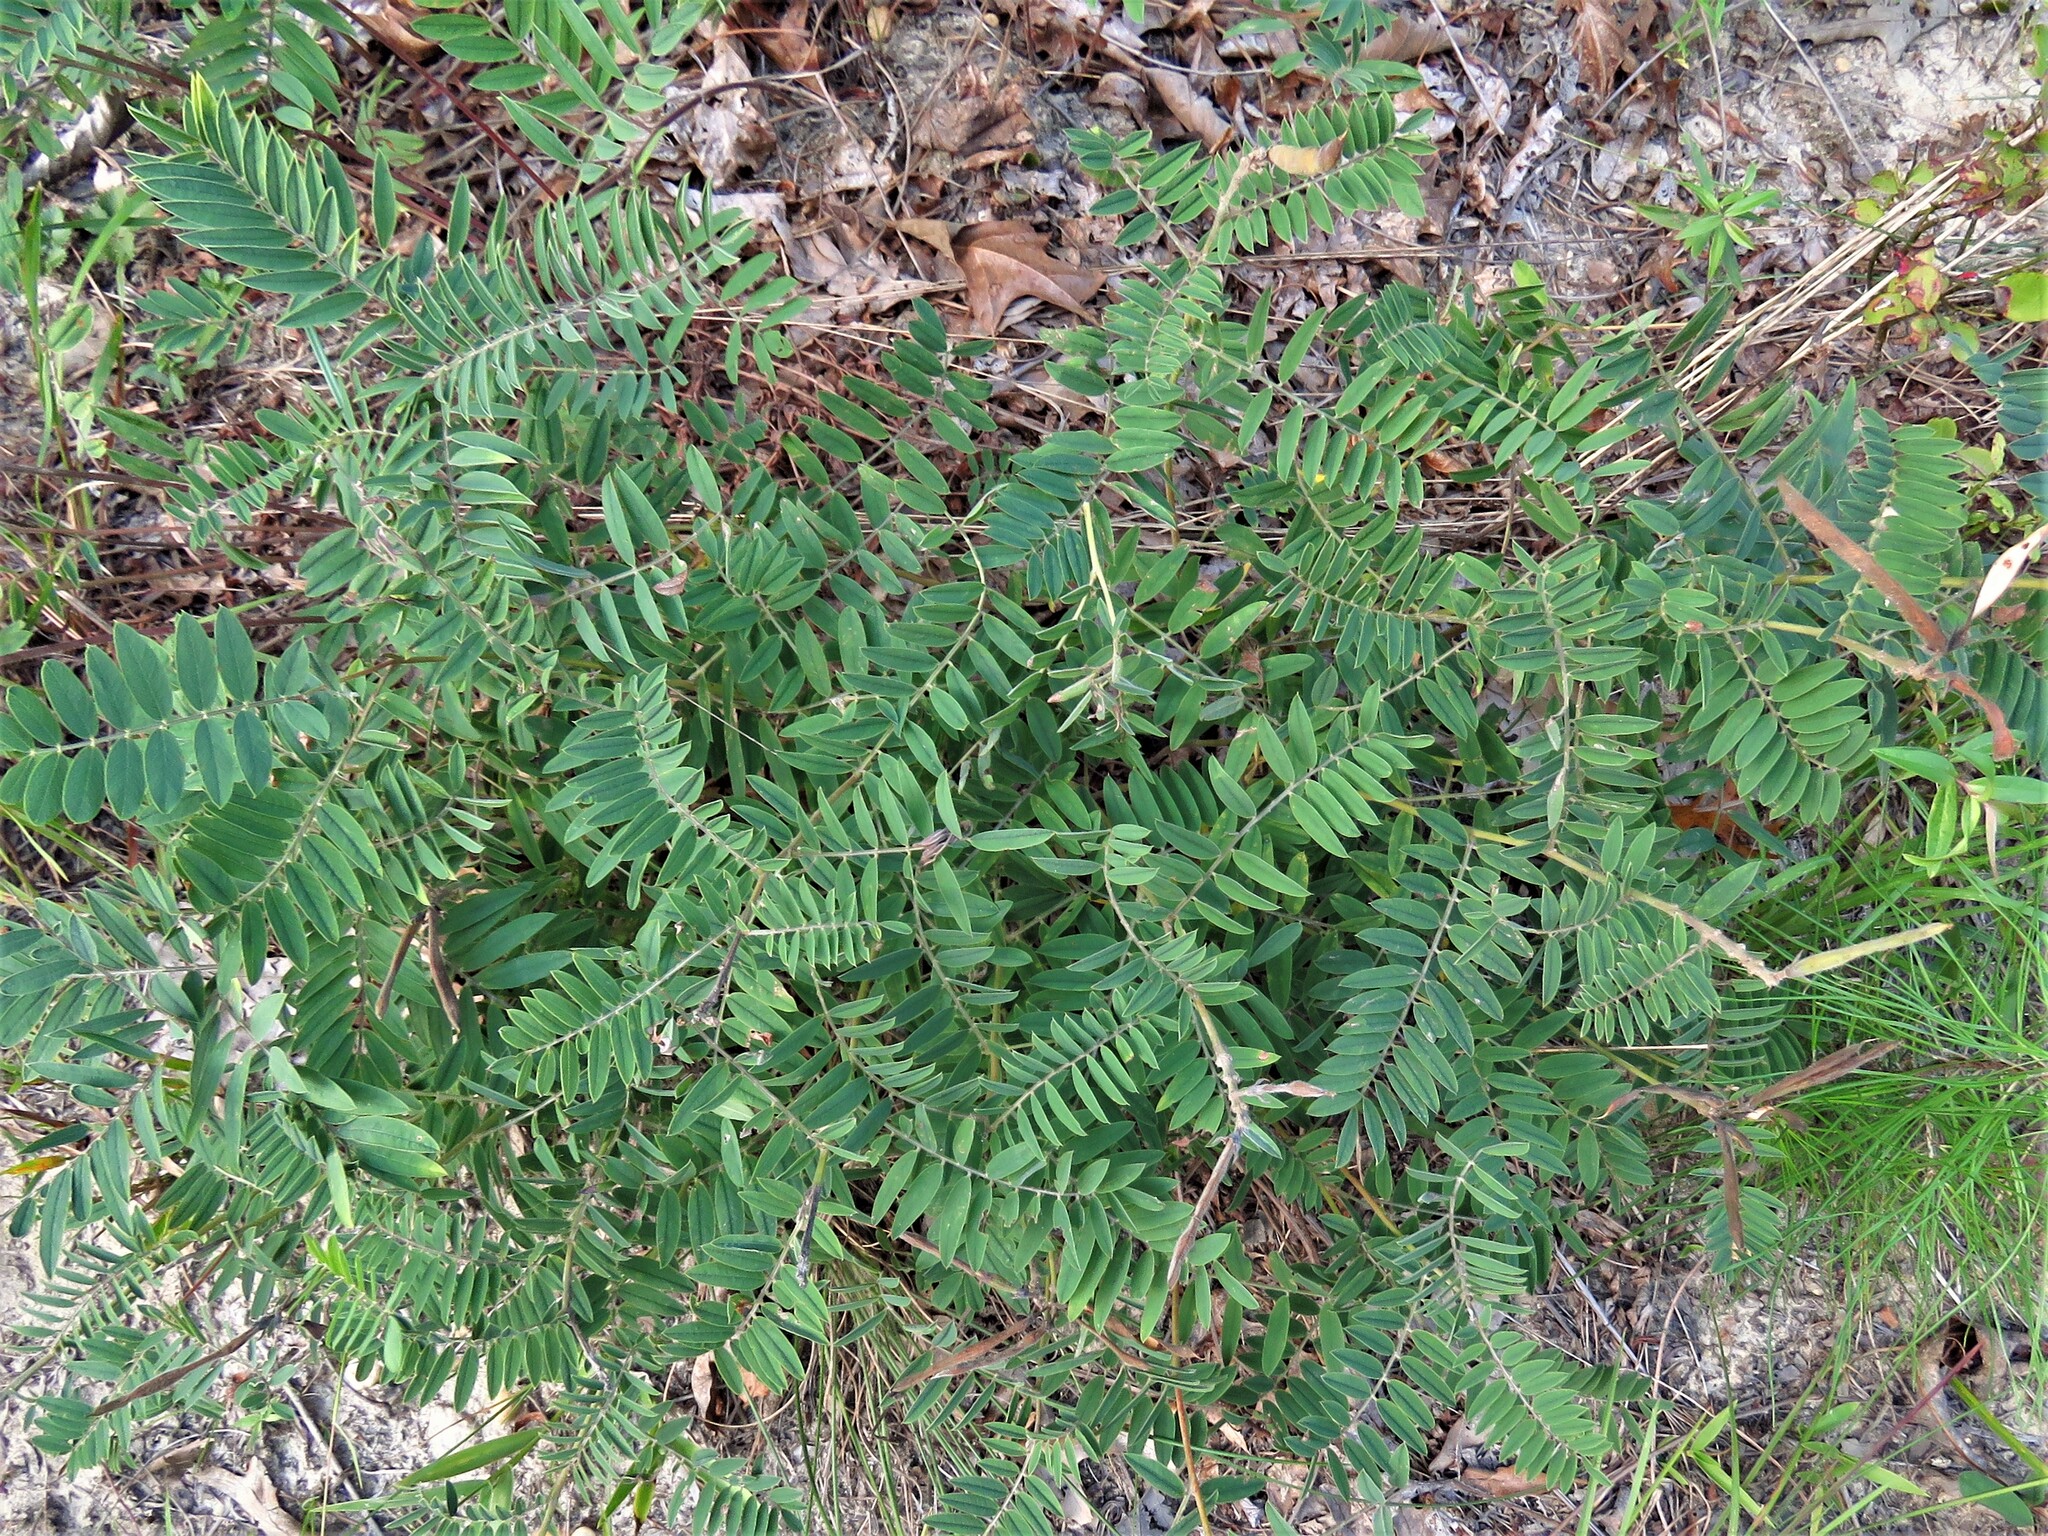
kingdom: Plantae
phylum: Tracheophyta
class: Magnoliopsida
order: Fabales
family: Fabaceae
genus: Tephrosia
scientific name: Tephrosia virginiana
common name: Rabbit-pea
